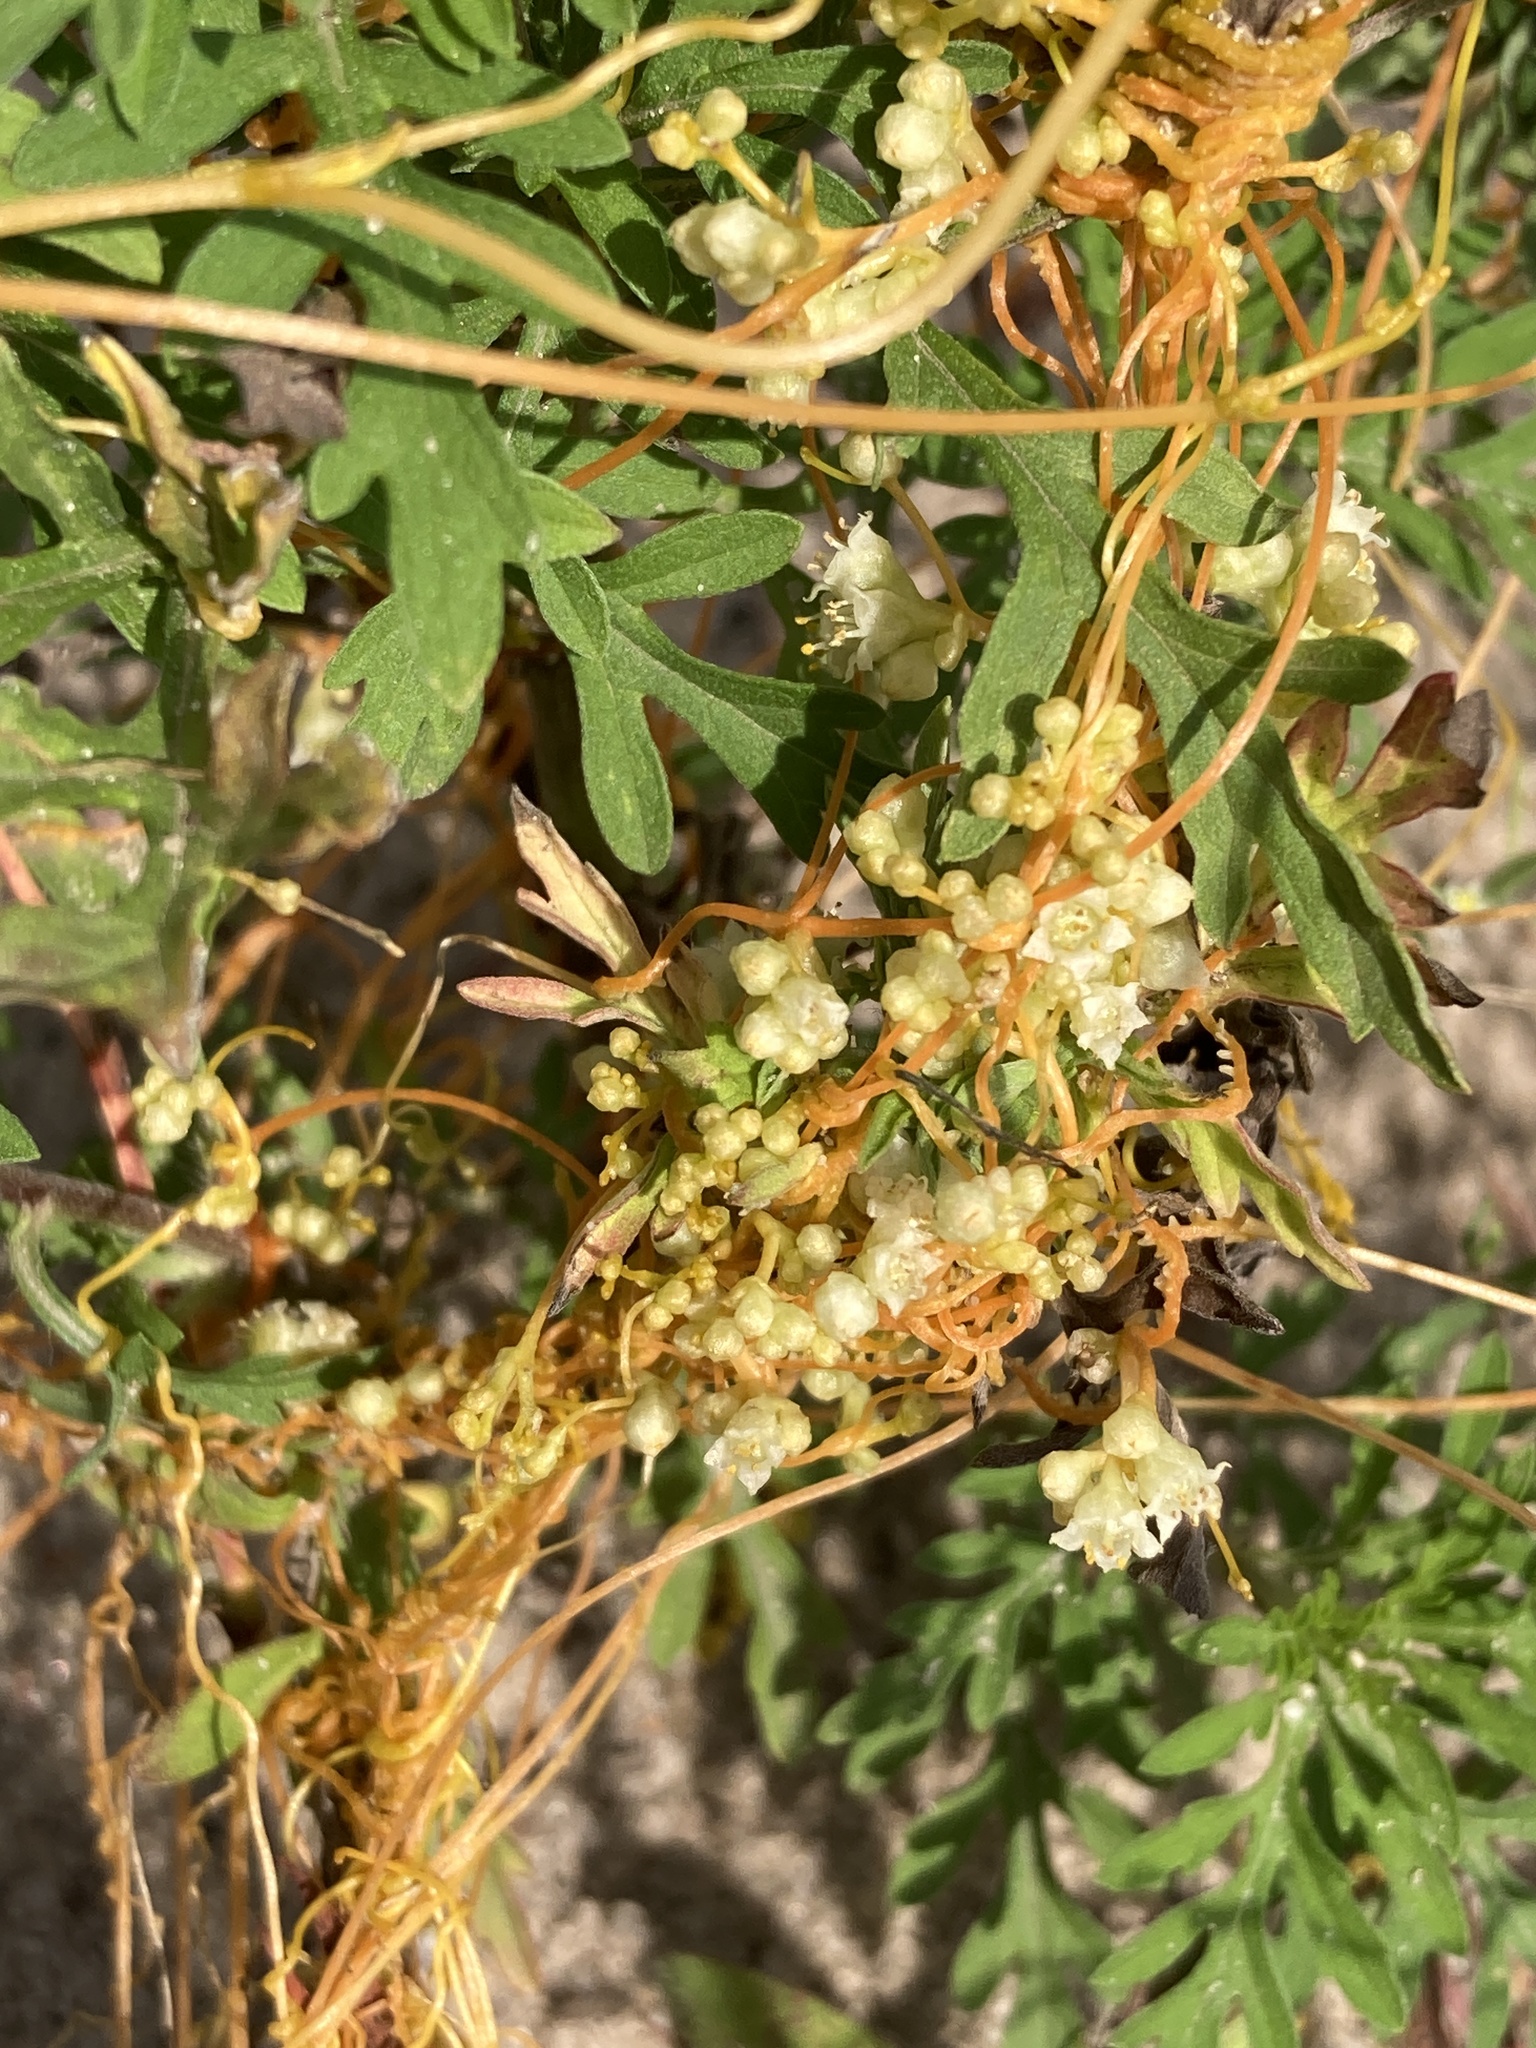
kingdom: Plantae
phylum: Tracheophyta
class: Magnoliopsida
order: Solanales
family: Convolvulaceae
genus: Cuscuta
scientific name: Cuscuta campestris
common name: Yellow dodder
